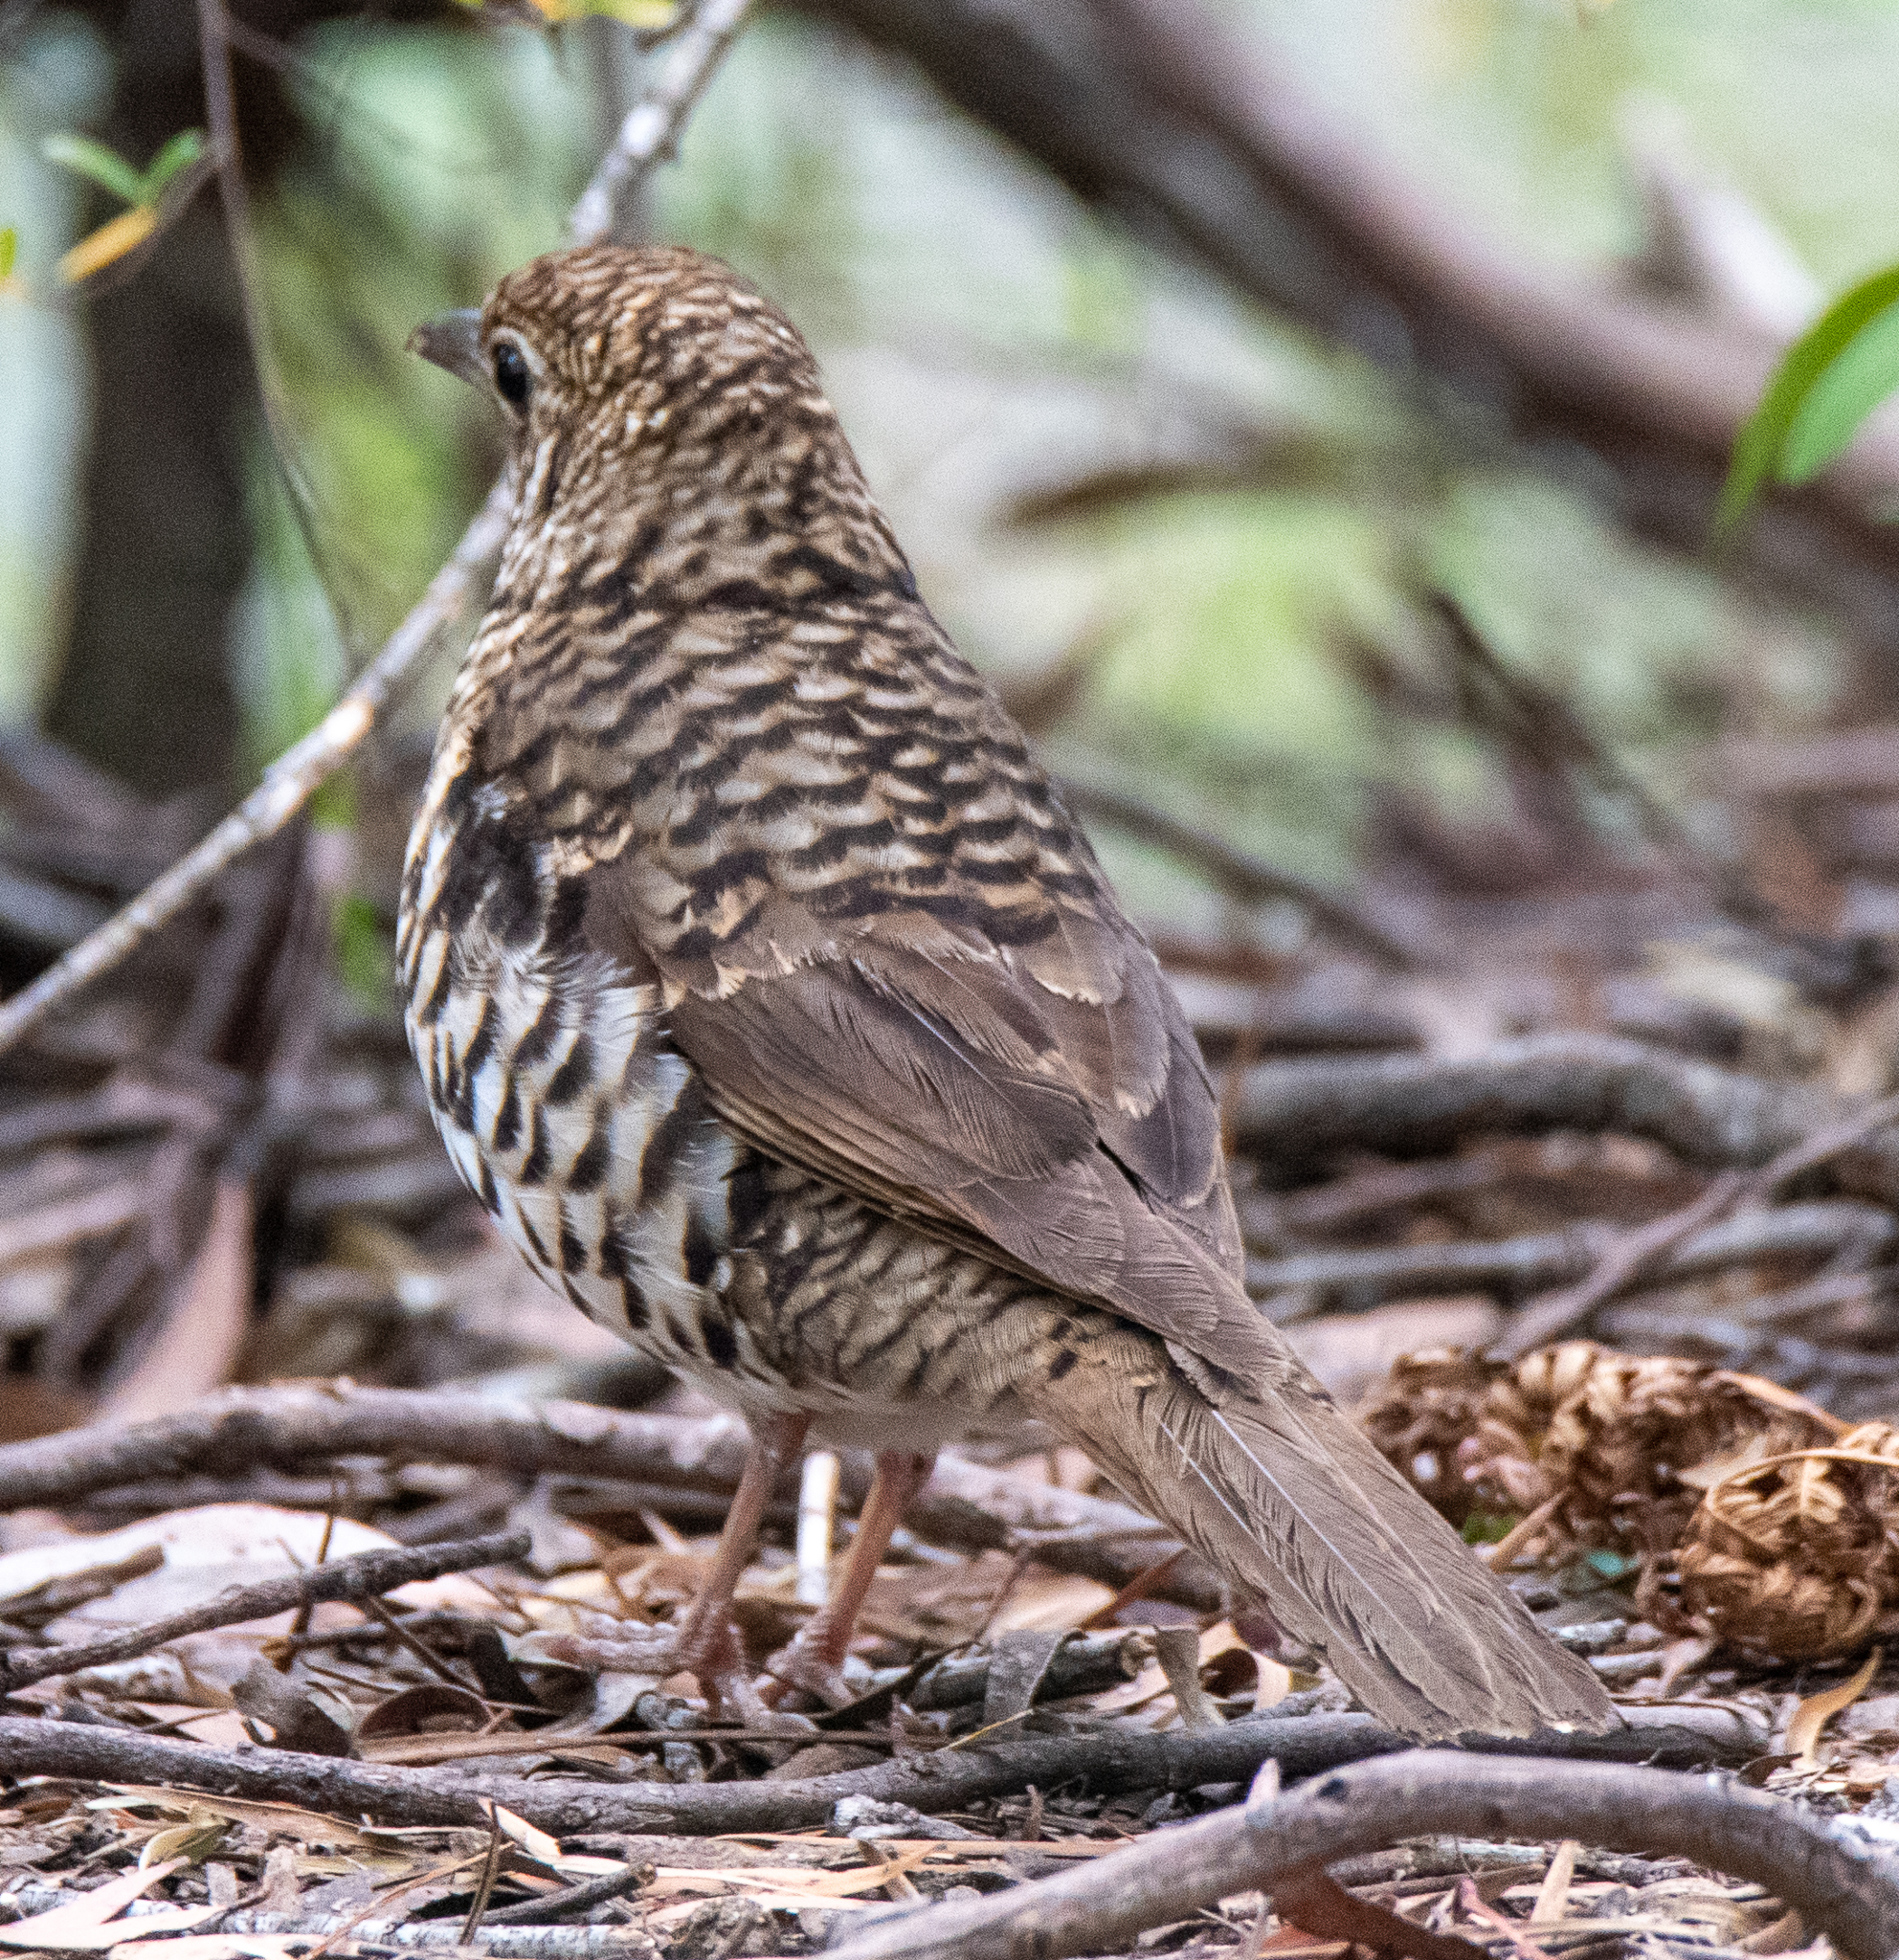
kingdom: Animalia
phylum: Chordata
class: Aves
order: Passeriformes
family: Turdidae
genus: Zoothera
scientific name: Zoothera lunulata
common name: Bassian thrush
